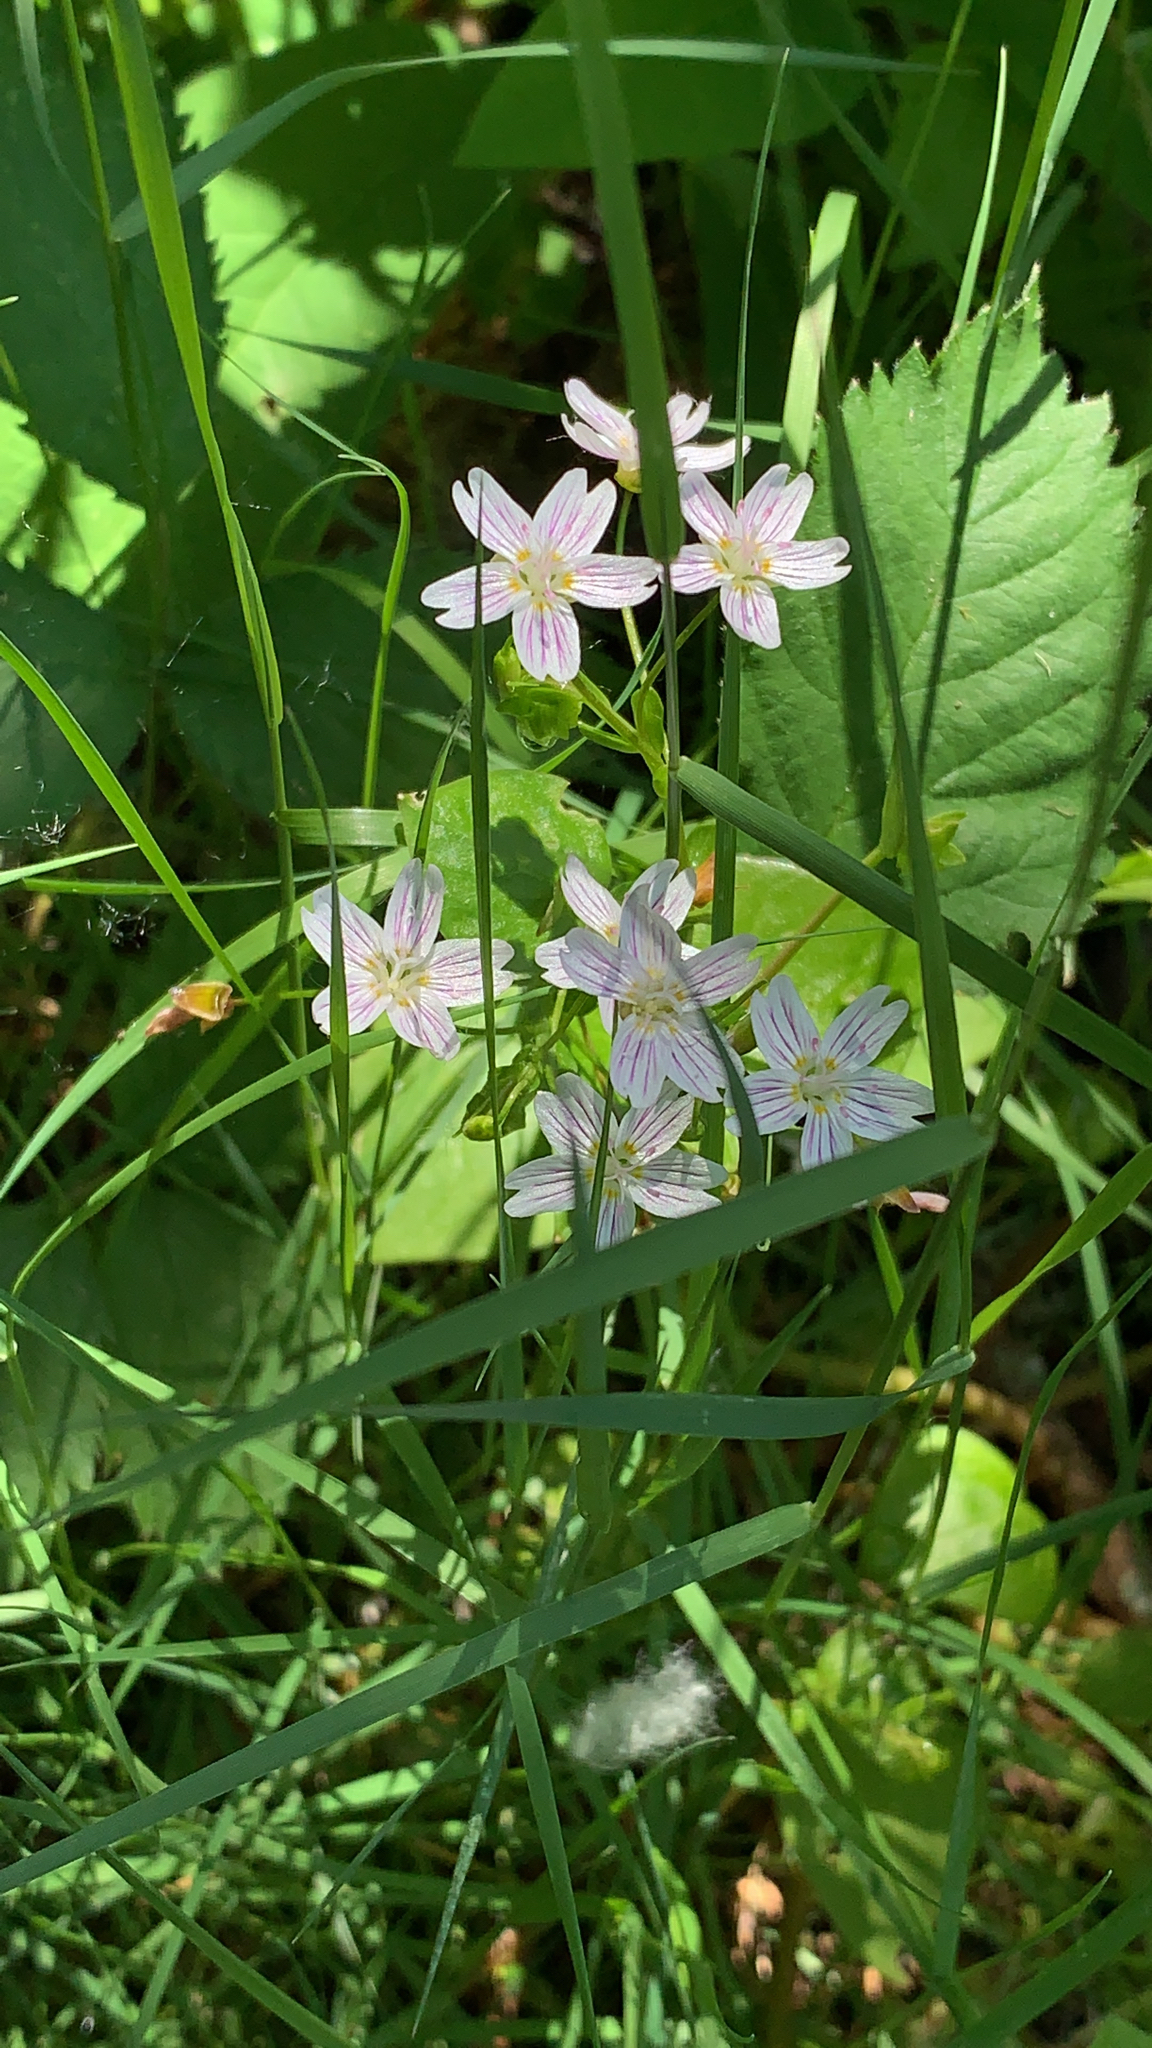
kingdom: Plantae
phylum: Tracheophyta
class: Magnoliopsida
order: Caryophyllales
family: Montiaceae
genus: Claytonia
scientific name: Claytonia sibirica
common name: Pink purslane
